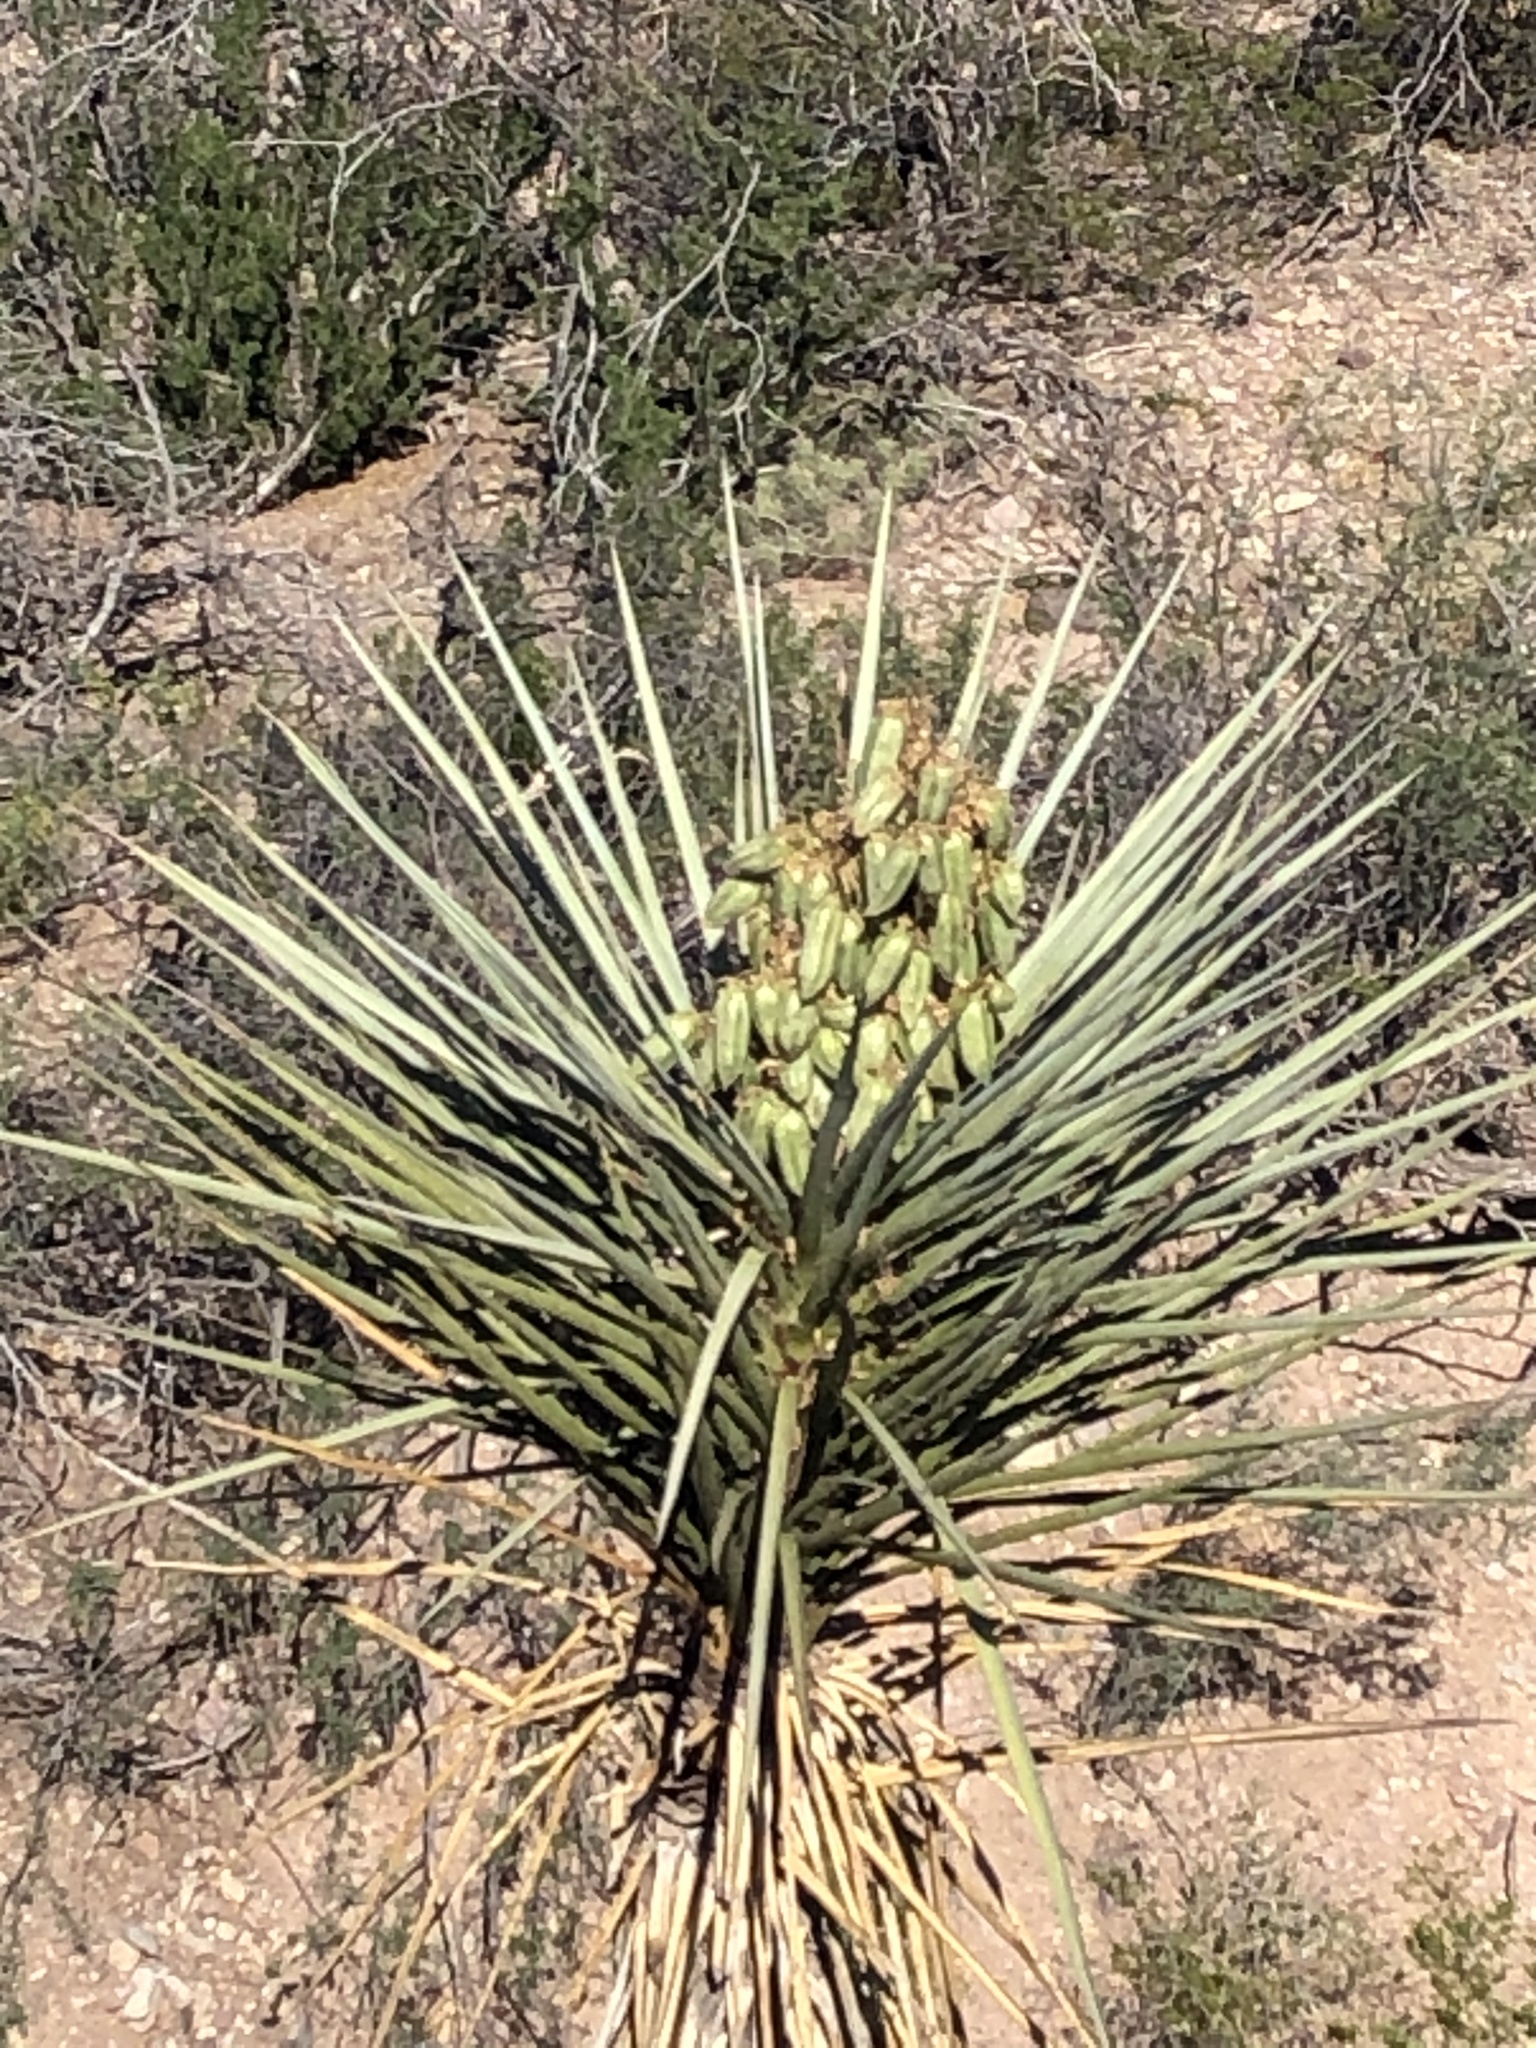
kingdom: Plantae
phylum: Tracheophyta
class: Liliopsida
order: Asparagales
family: Asparagaceae
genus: Yucca
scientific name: Yucca treculiana
